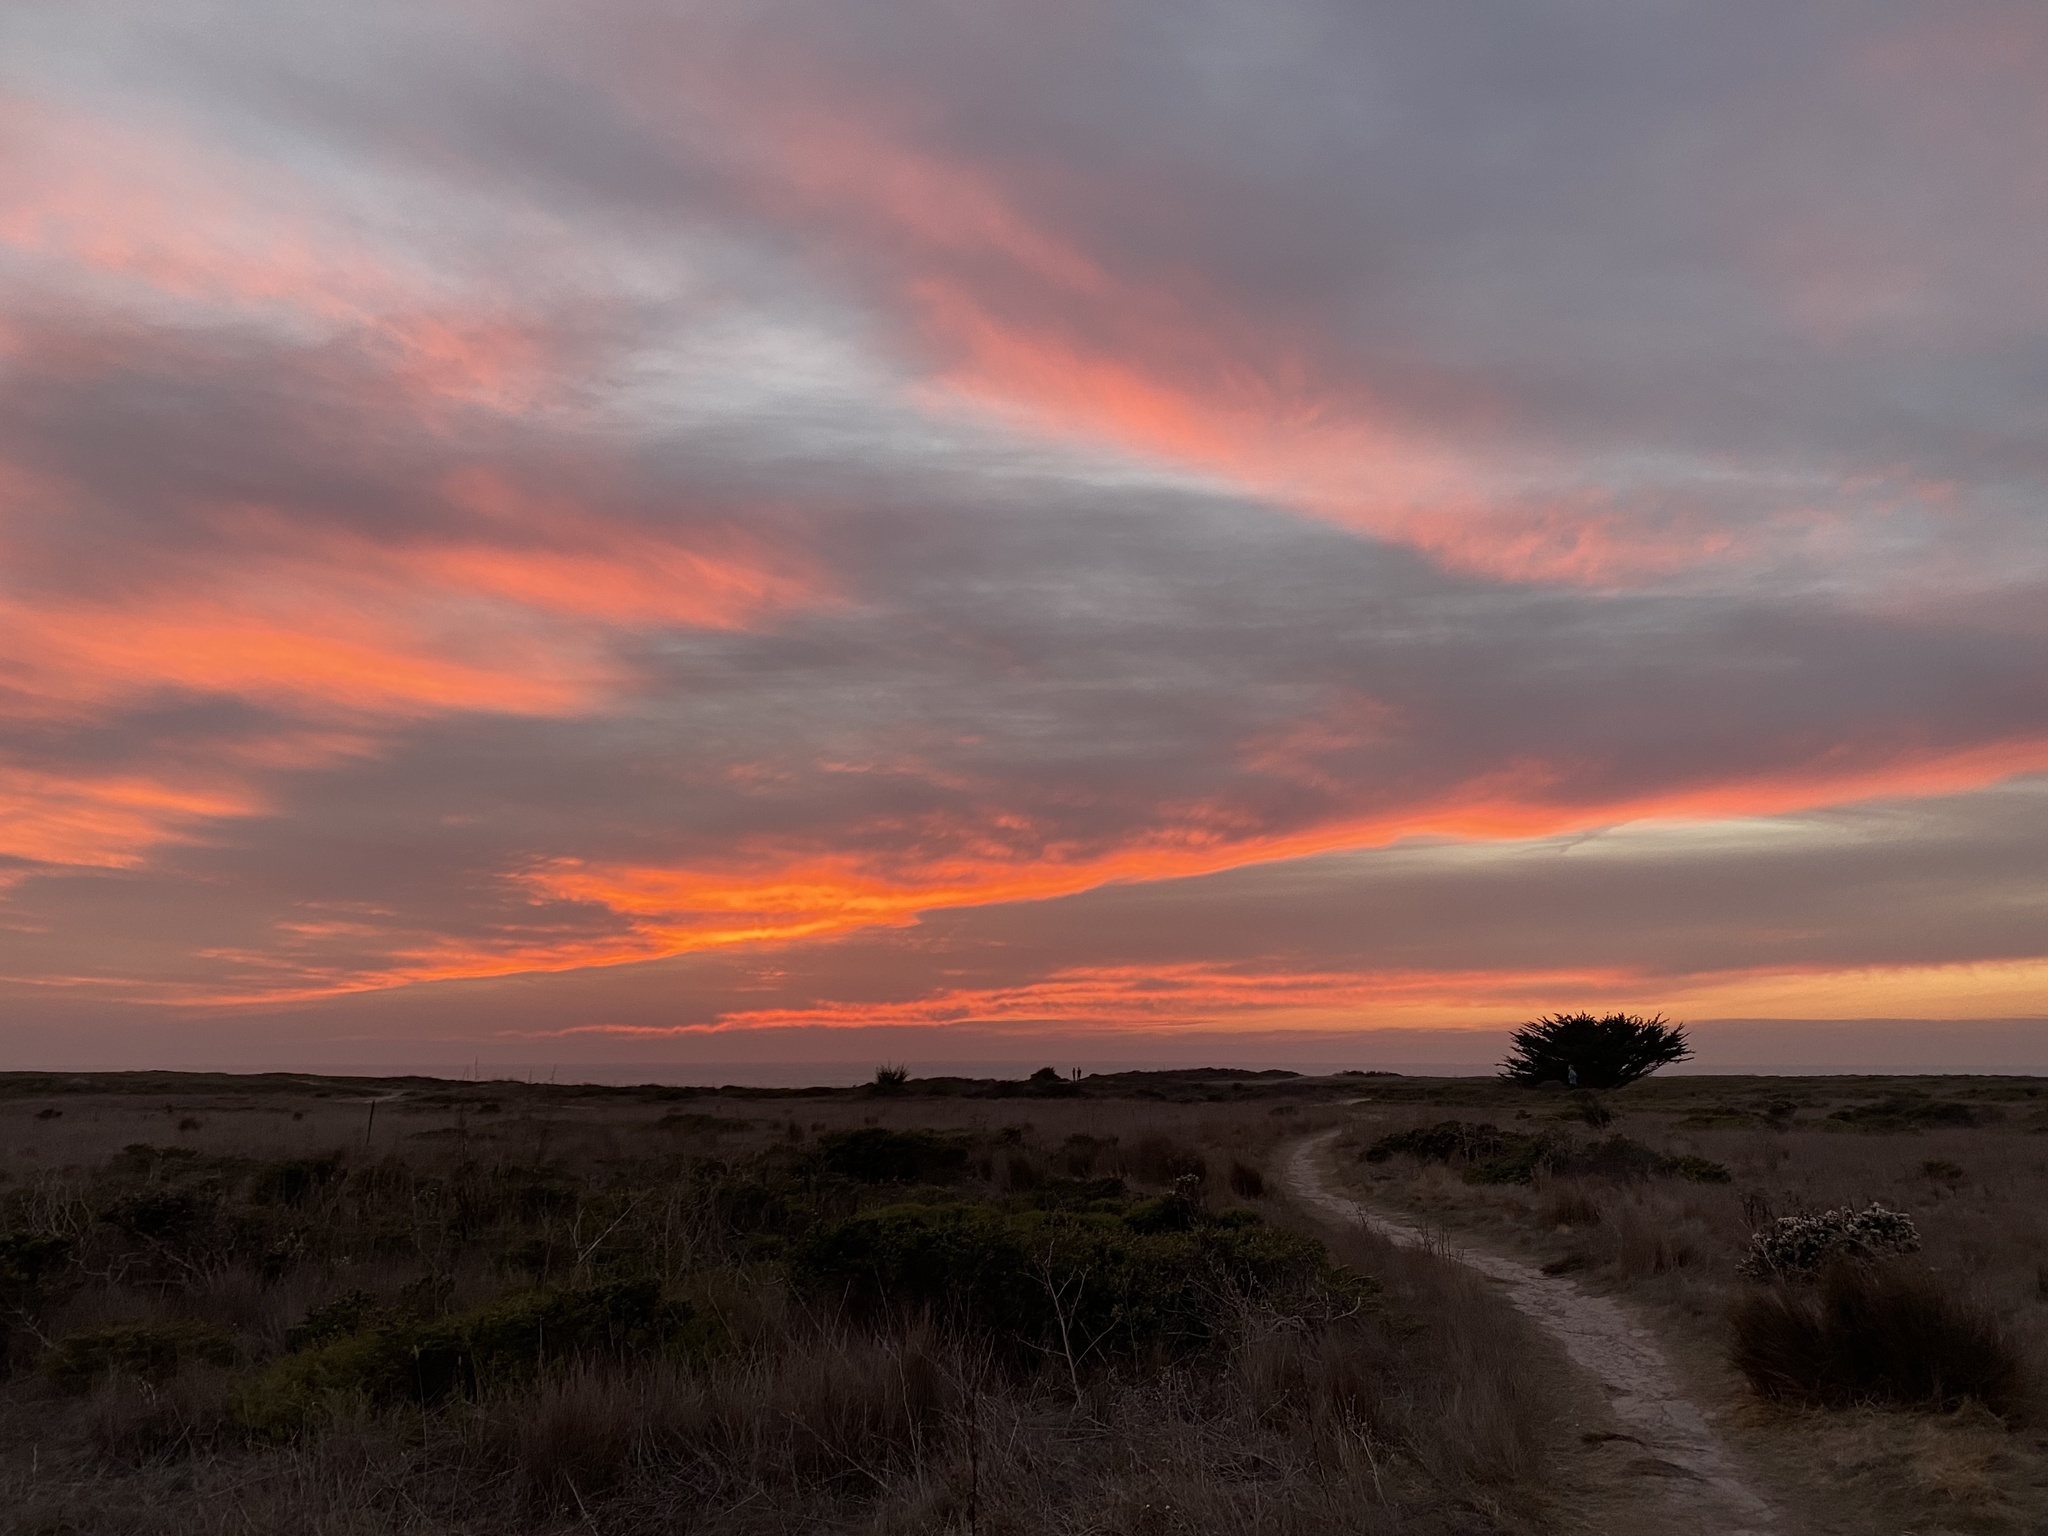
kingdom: Animalia
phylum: Chordata
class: Aves
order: Accipitriformes
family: Accipitridae
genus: Buteo
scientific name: Buteo lineatus
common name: Red-shouldered hawk
